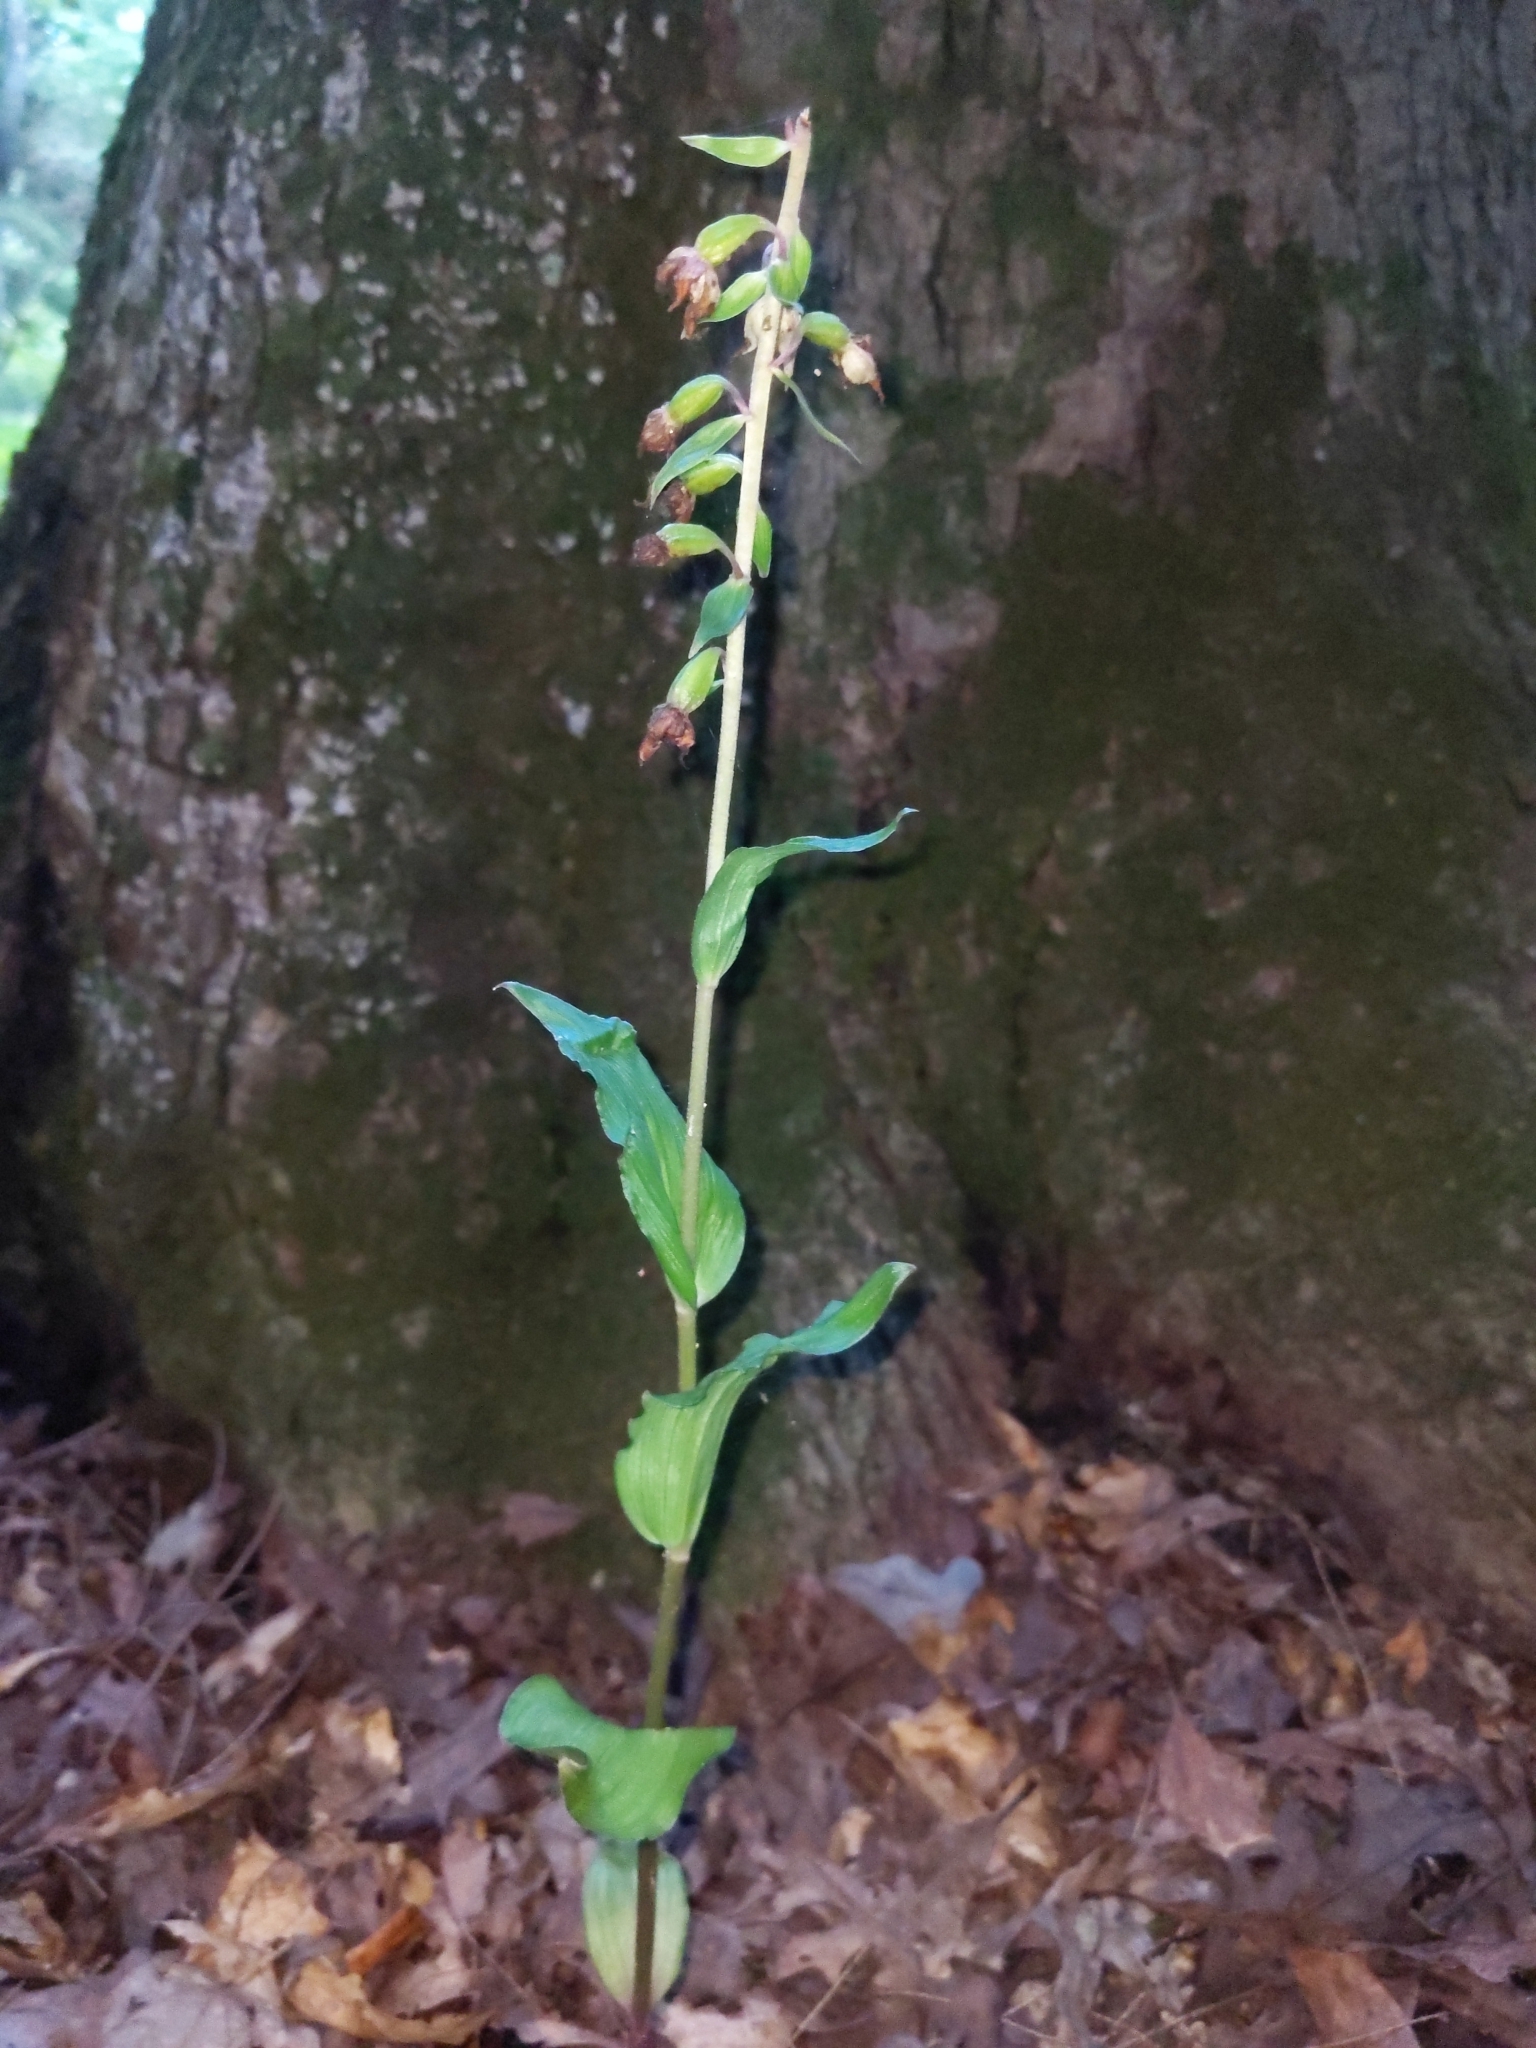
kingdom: Plantae
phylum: Tracheophyta
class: Liliopsida
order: Asparagales
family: Orchidaceae
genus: Epipactis
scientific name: Epipactis helleborine
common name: Broad-leaved helleborine
